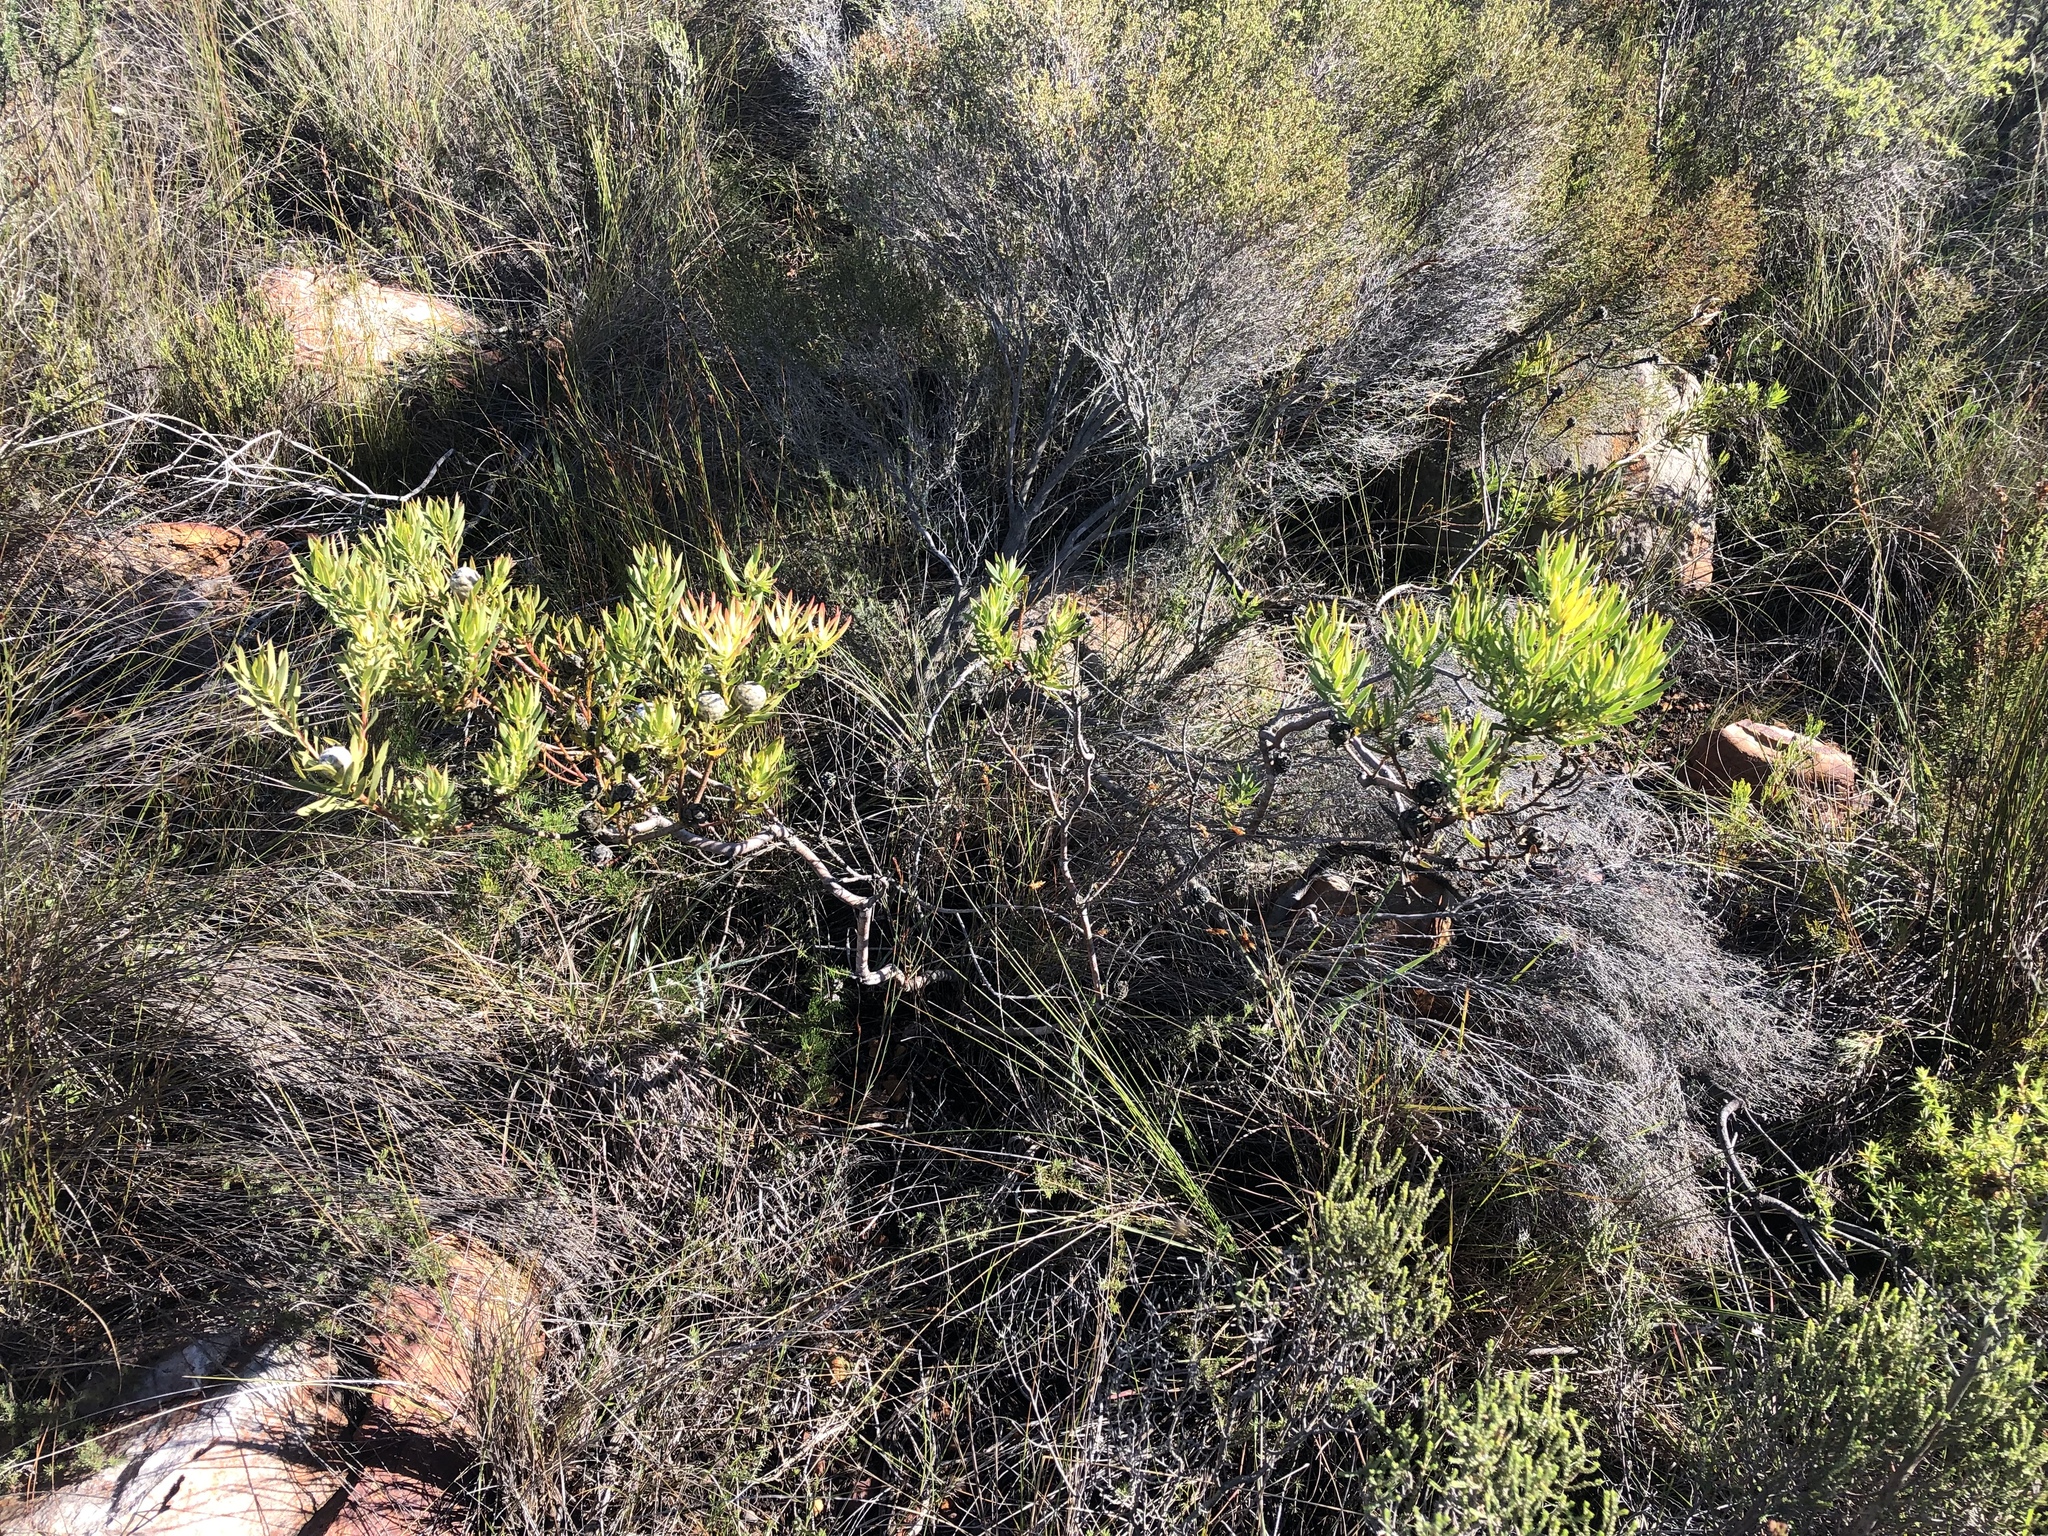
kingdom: Plantae
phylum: Tracheophyta
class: Magnoliopsida
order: Proteales
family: Proteaceae
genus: Leucadendron
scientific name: Leucadendron salignum
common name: Common sunshine conebush
